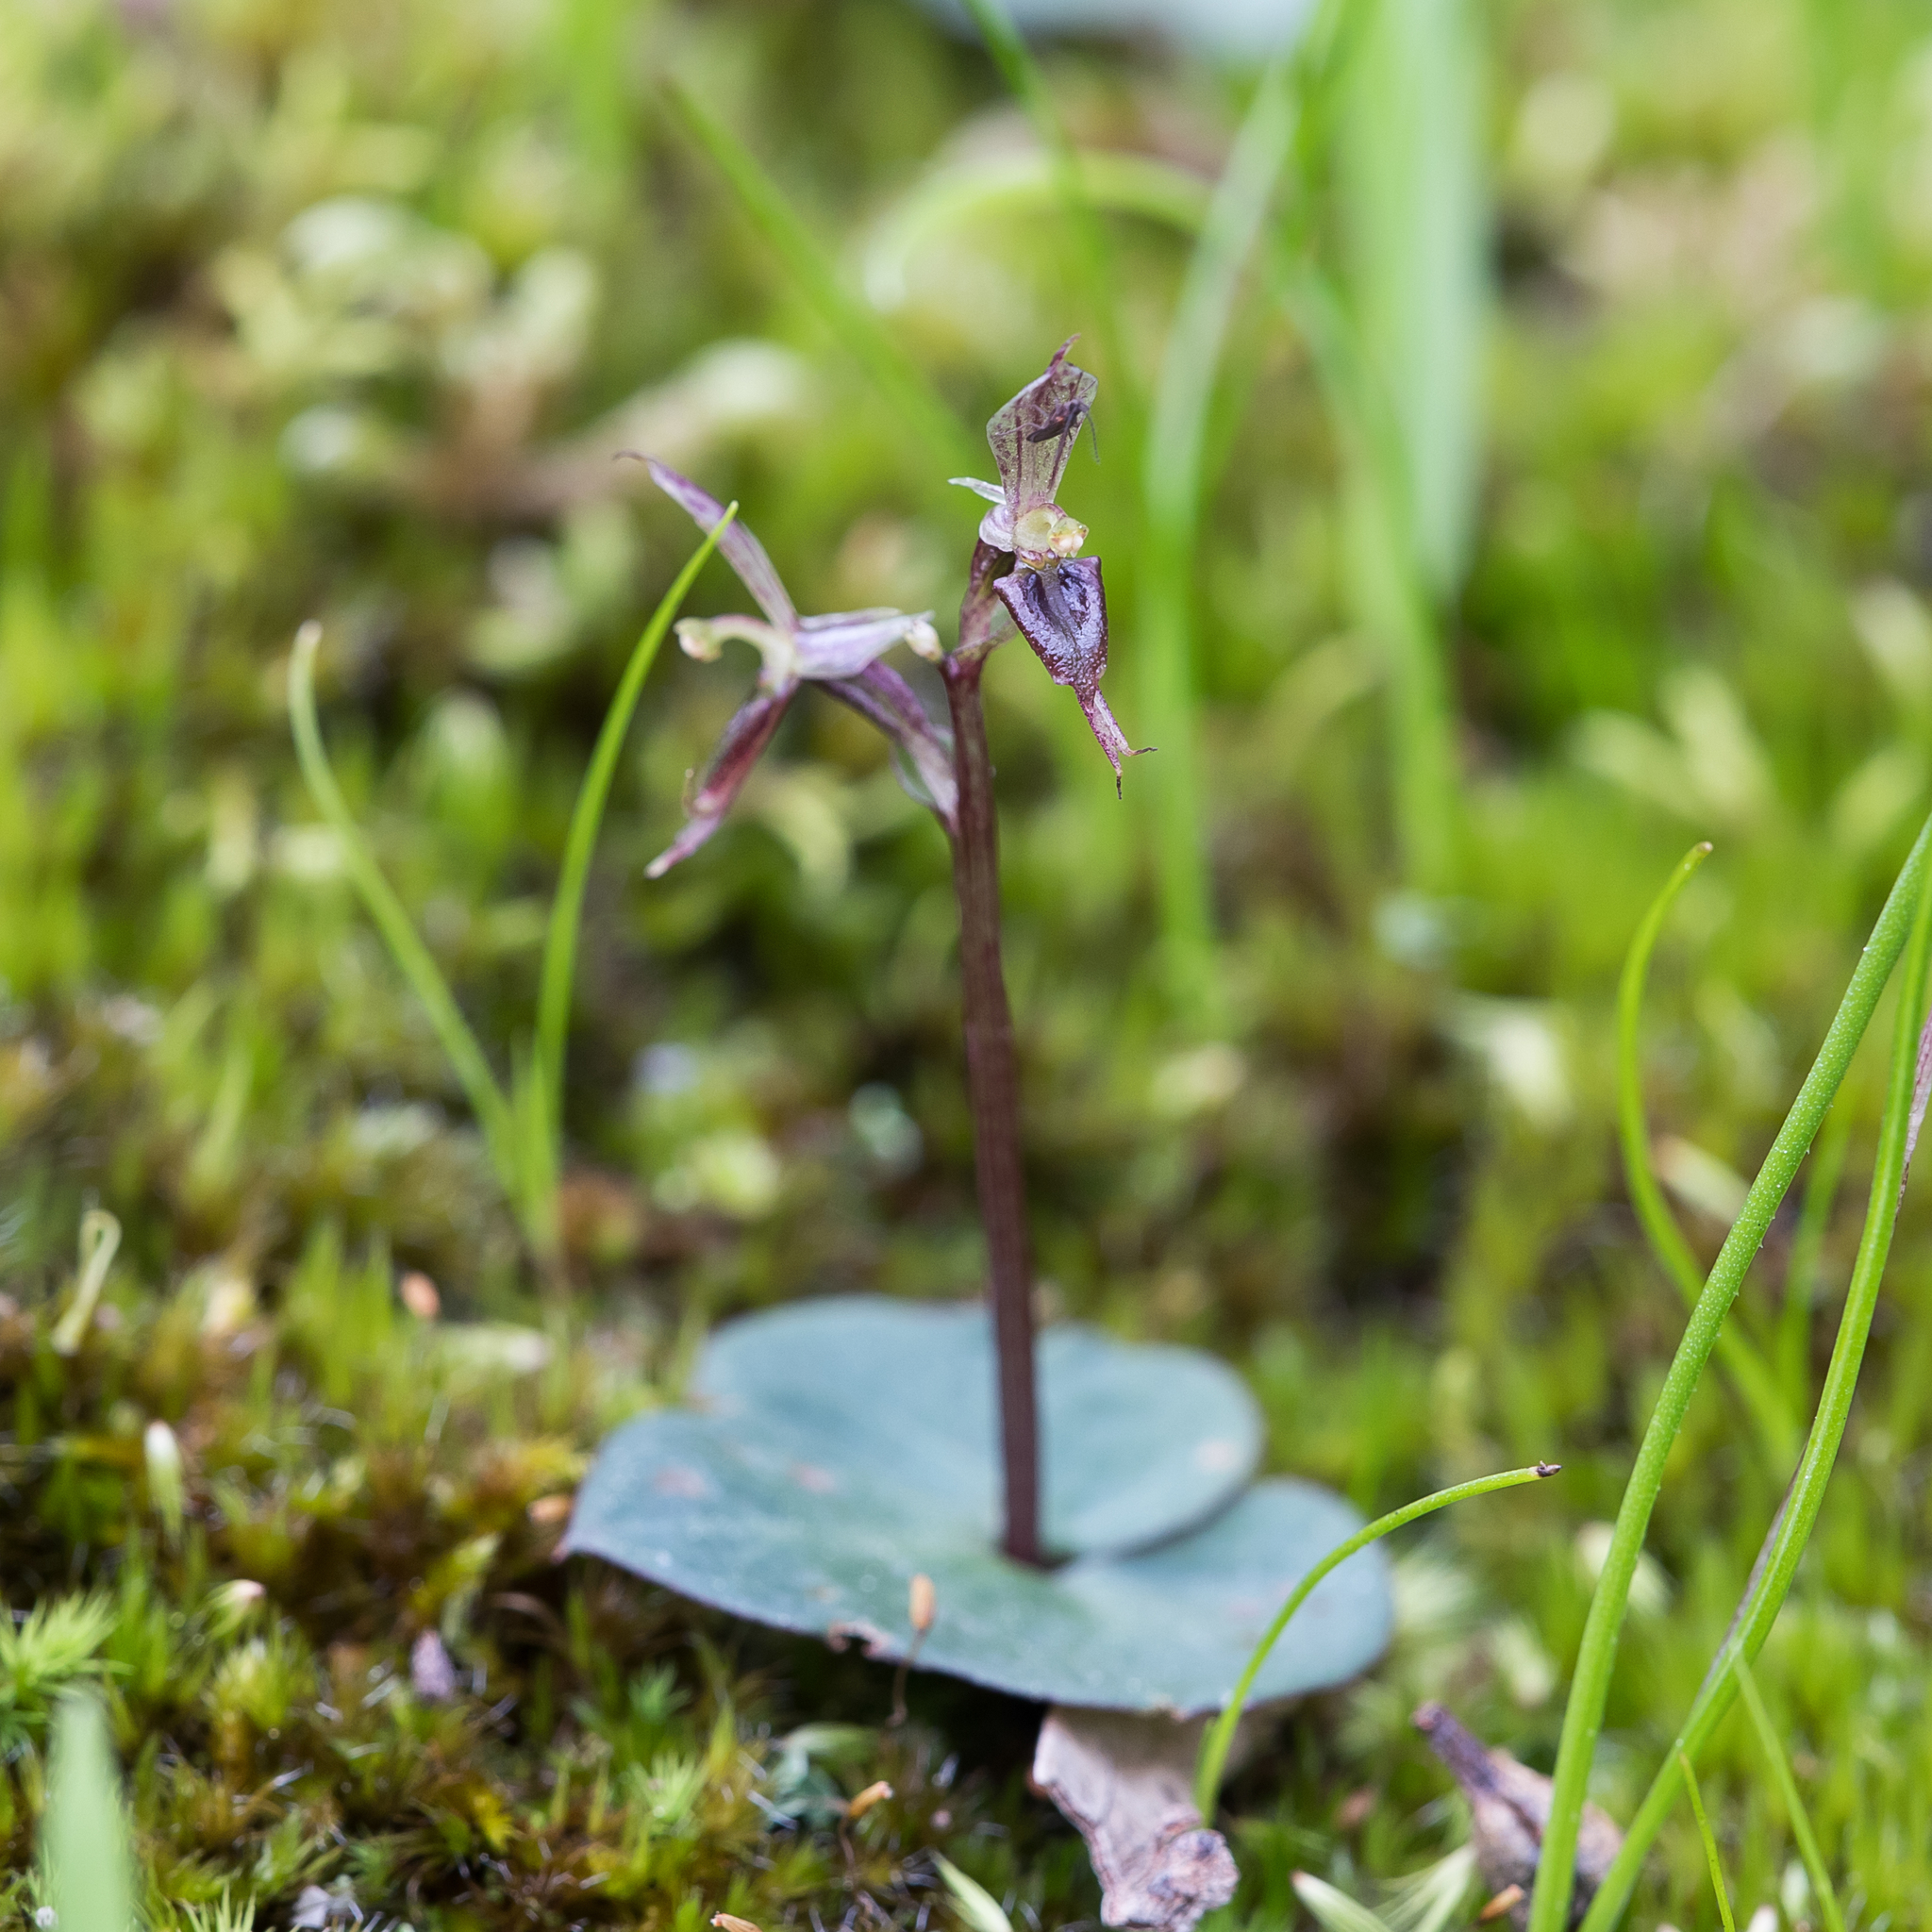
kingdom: Plantae
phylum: Tracheophyta
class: Liliopsida
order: Asparagales
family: Orchidaceae
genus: Acianthus
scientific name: Acianthus pusillus
